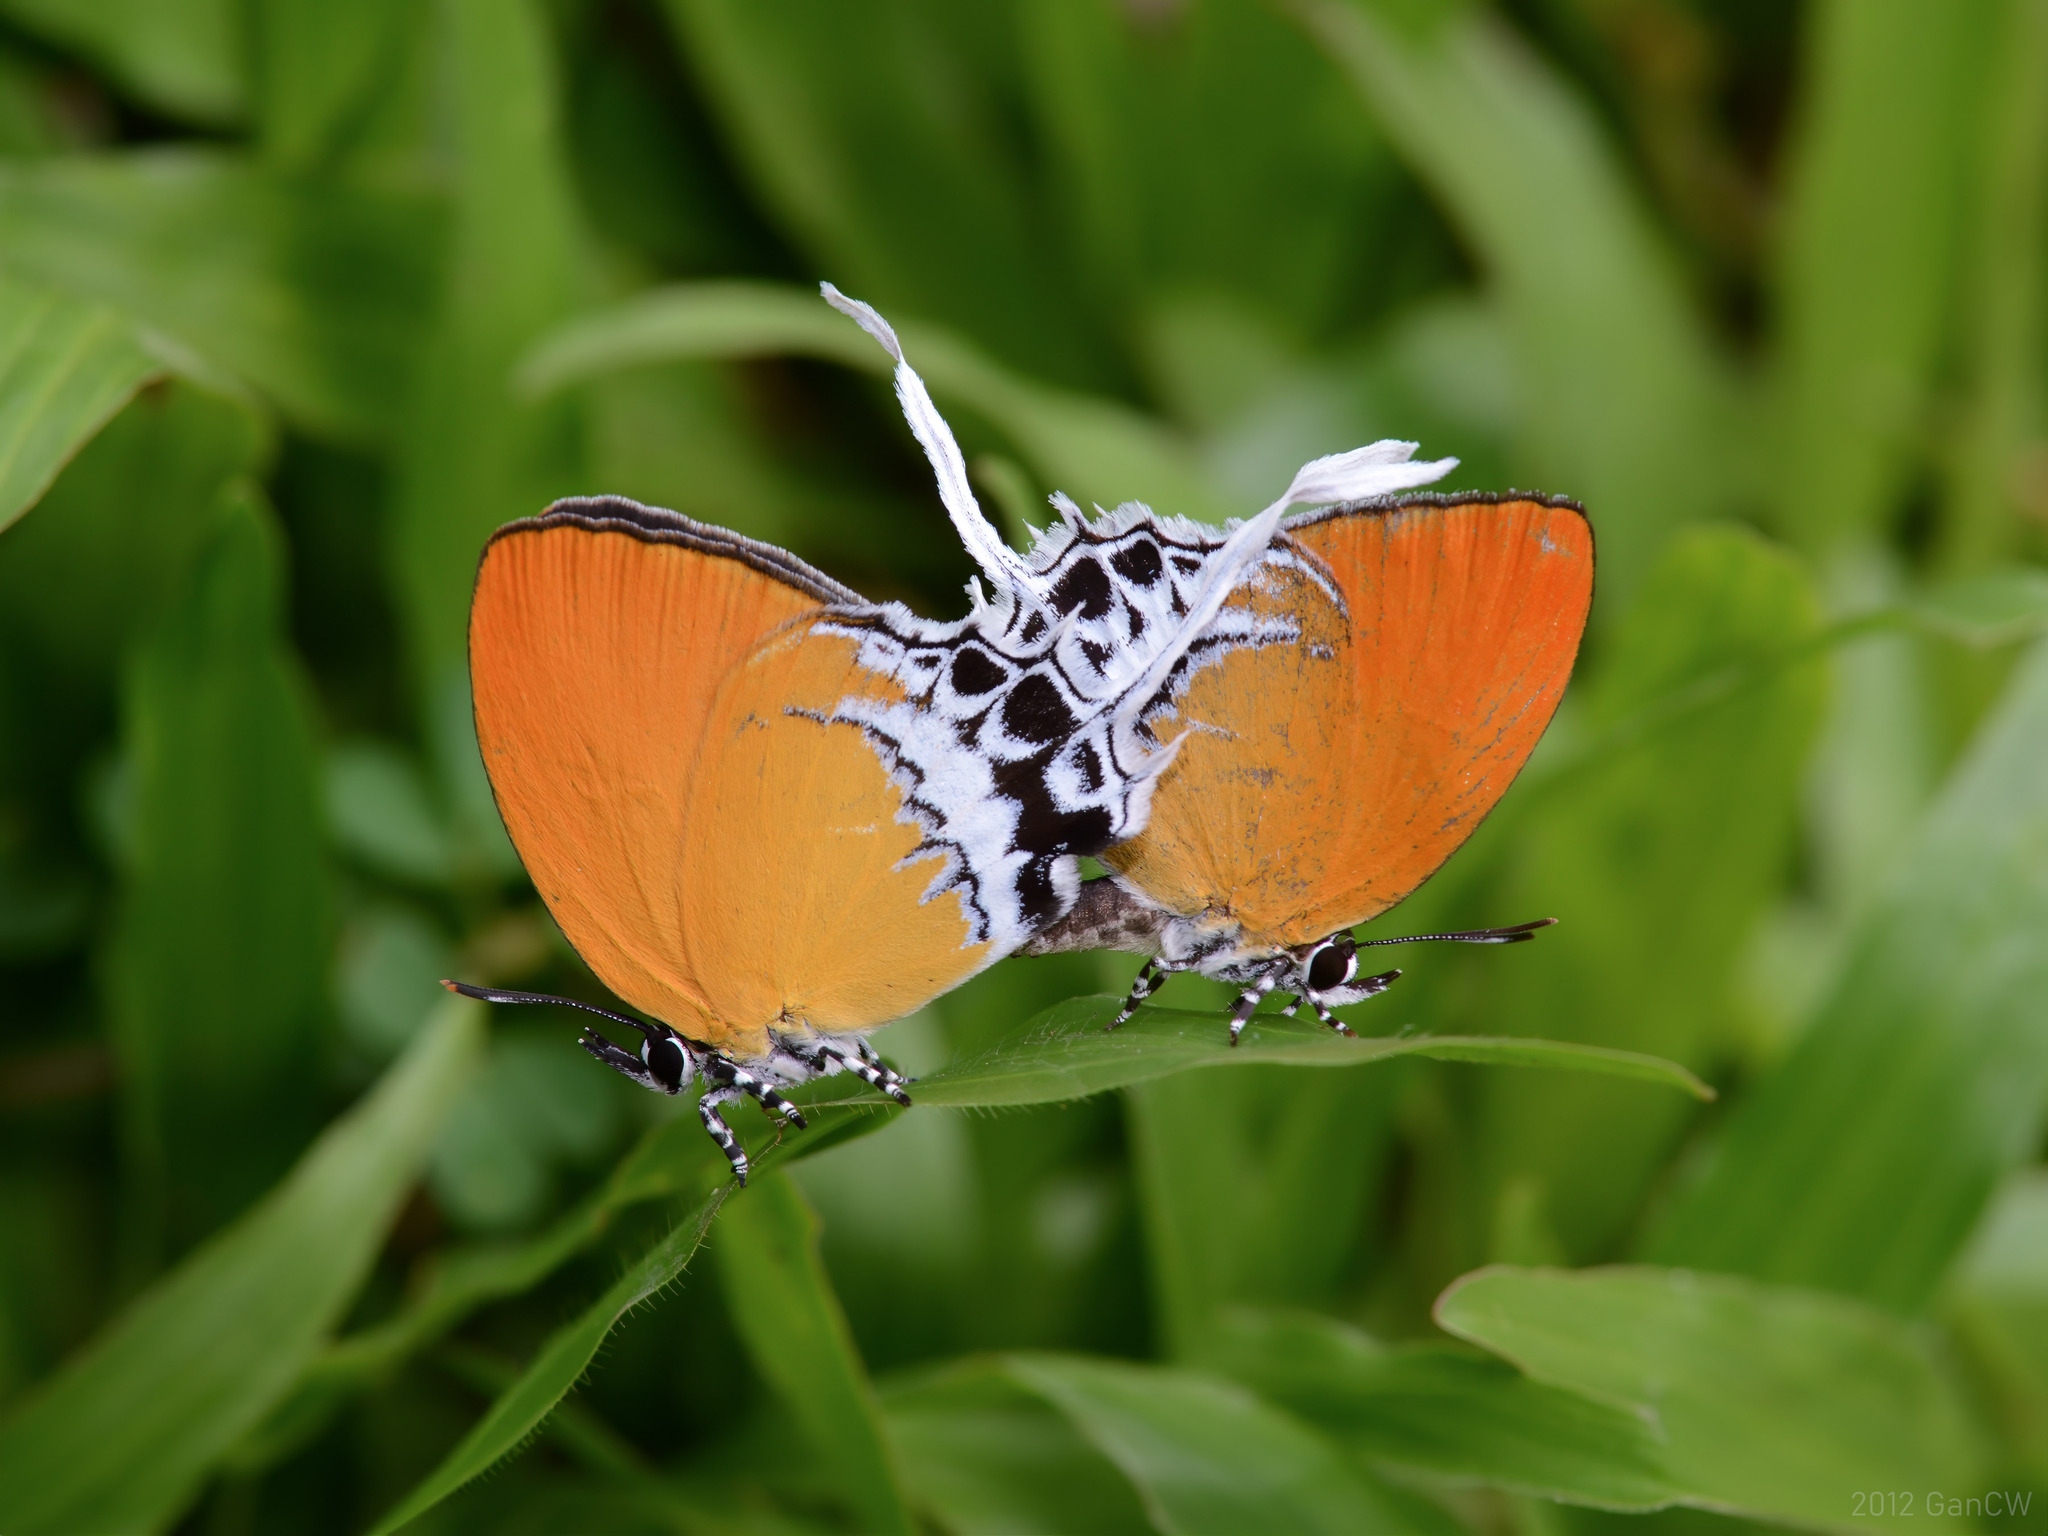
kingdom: Animalia
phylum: Arthropoda
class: Insecta
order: Lepidoptera
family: Lycaenidae
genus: Eooxylides
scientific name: Eooxylides tharis
